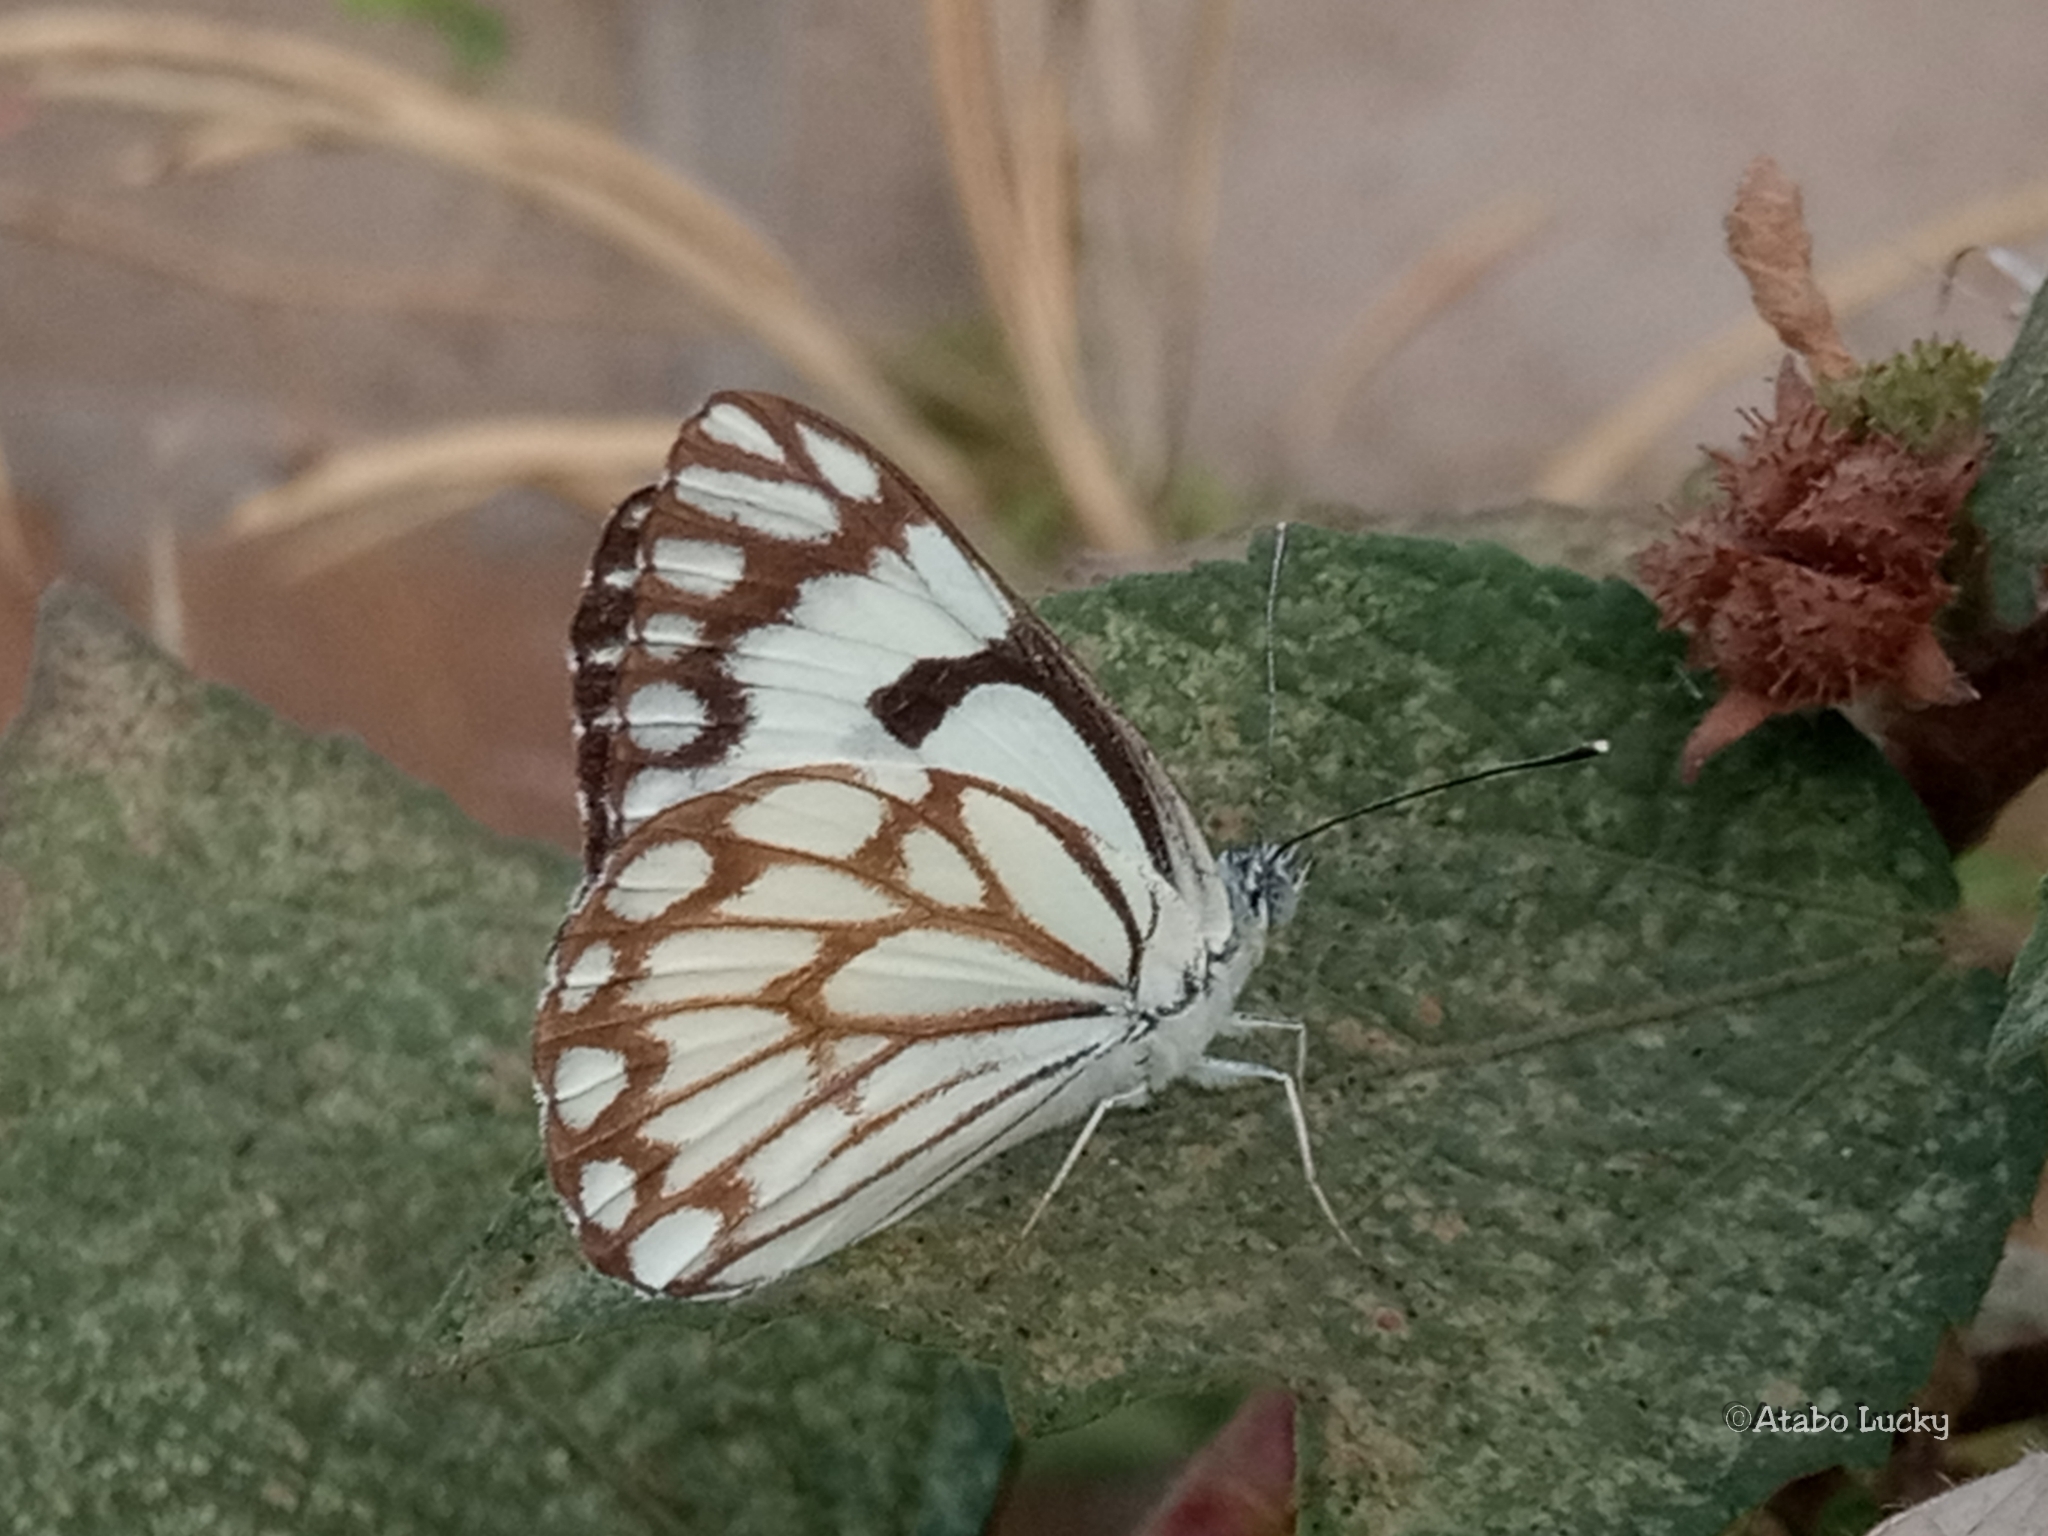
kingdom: Animalia
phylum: Arthropoda
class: Insecta
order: Lepidoptera
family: Pieridae
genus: Belenois
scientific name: Belenois aurota
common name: Brown-veined white
